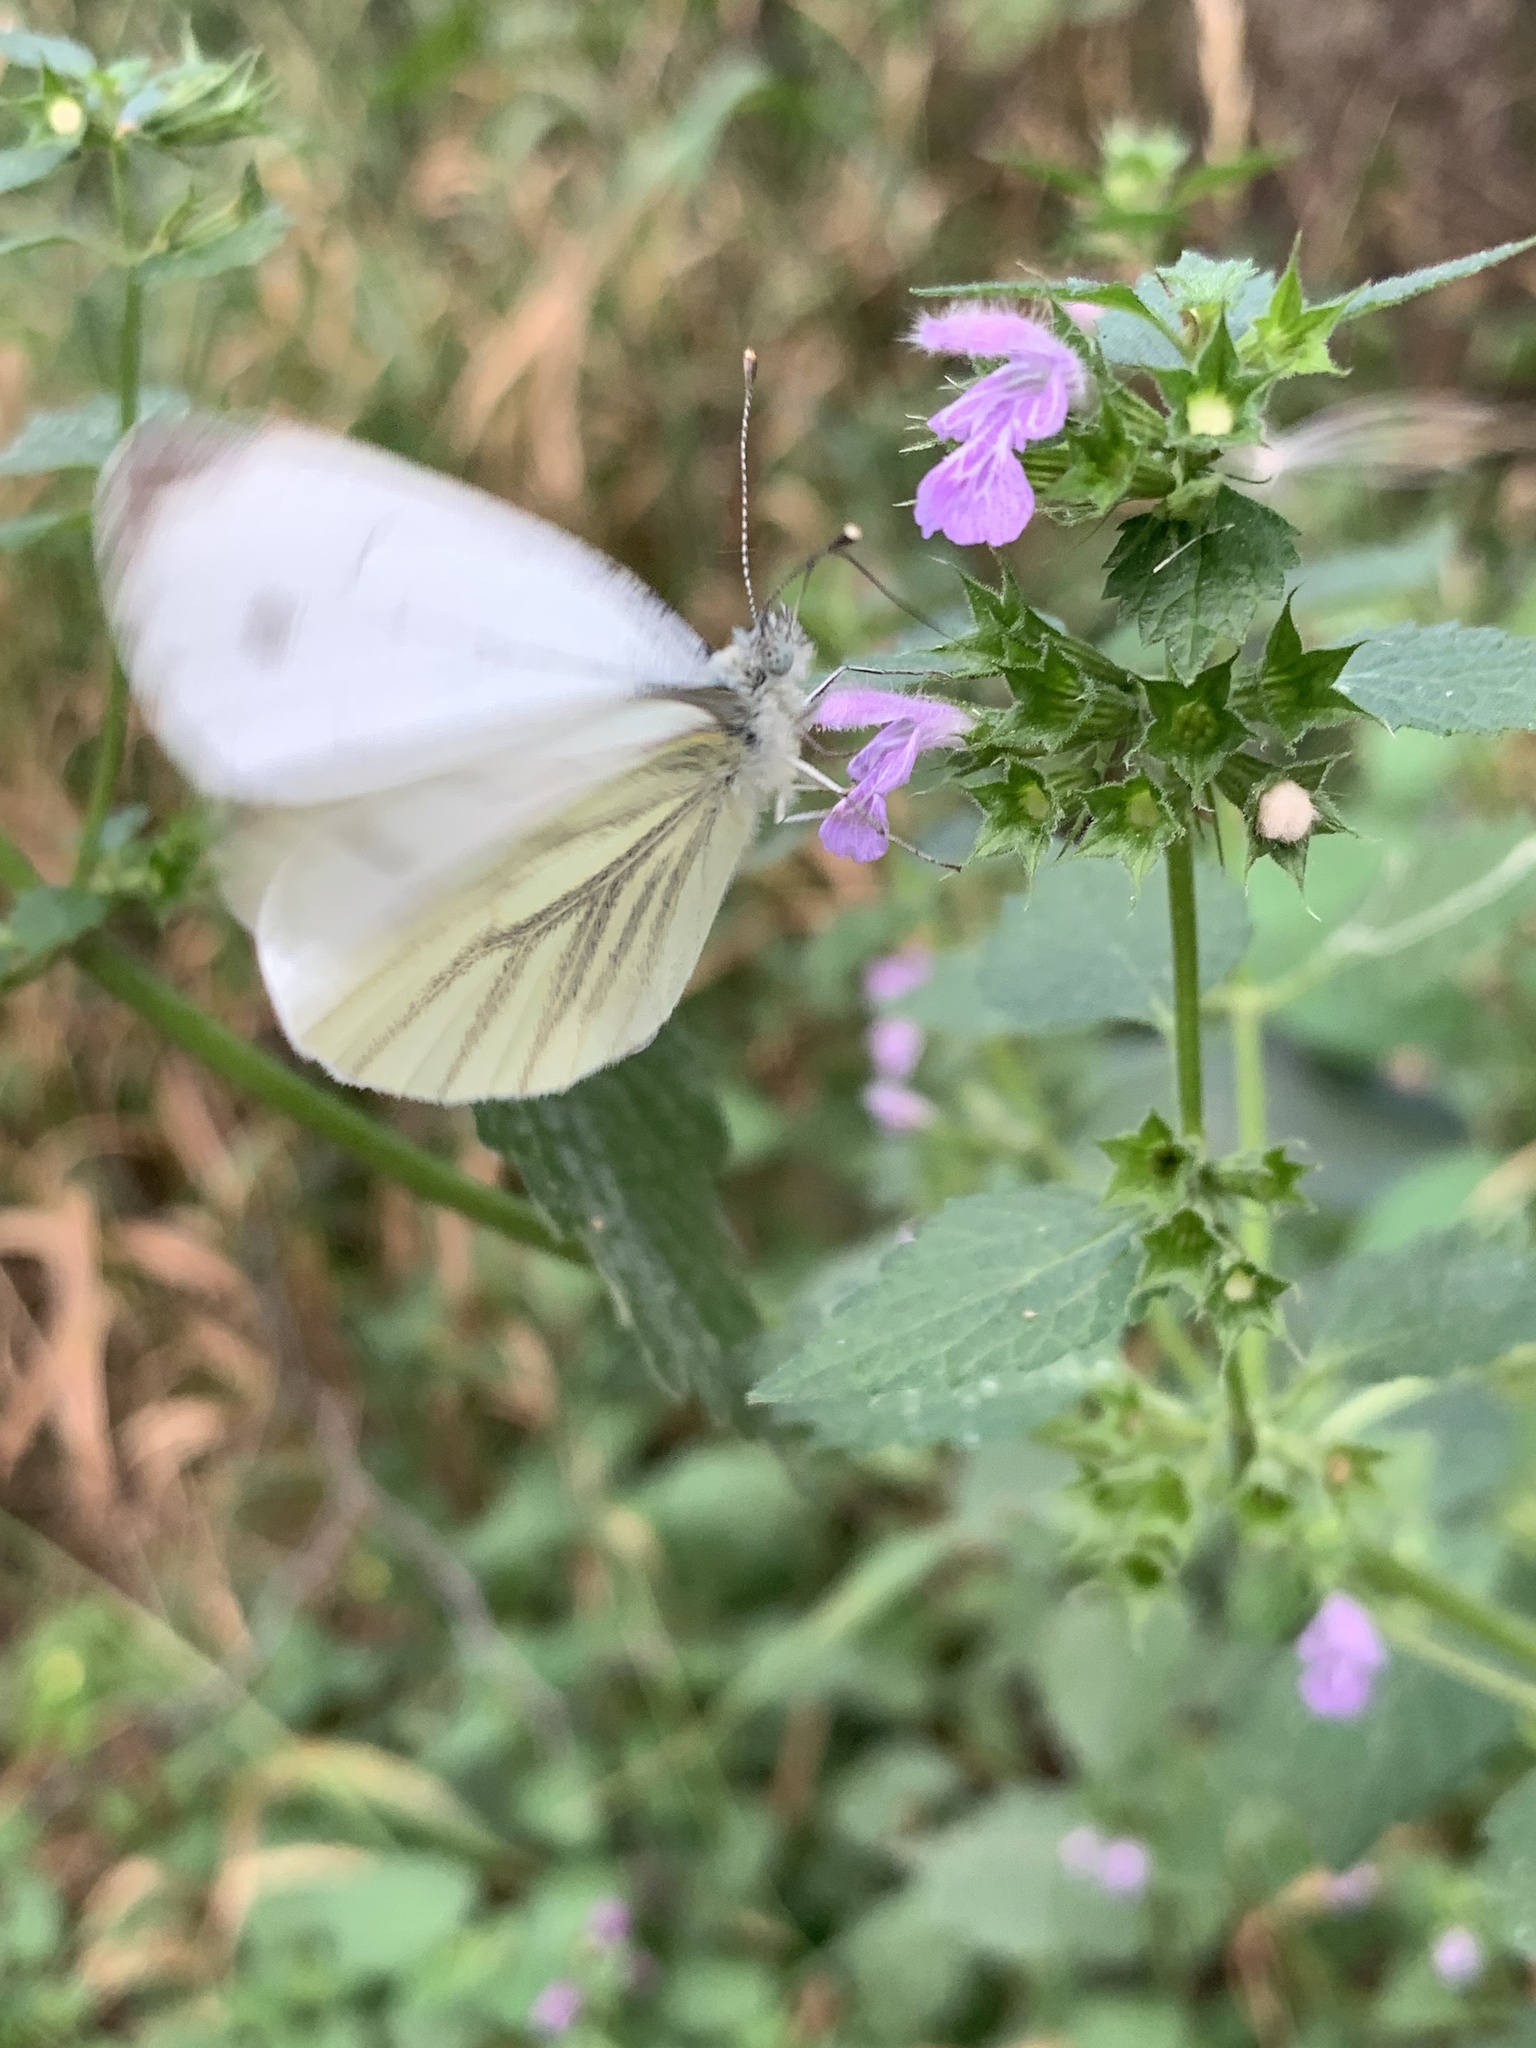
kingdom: Animalia
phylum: Arthropoda
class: Insecta
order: Lepidoptera
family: Pieridae
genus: Pieris
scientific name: Pieris napi
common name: Green-veined white
